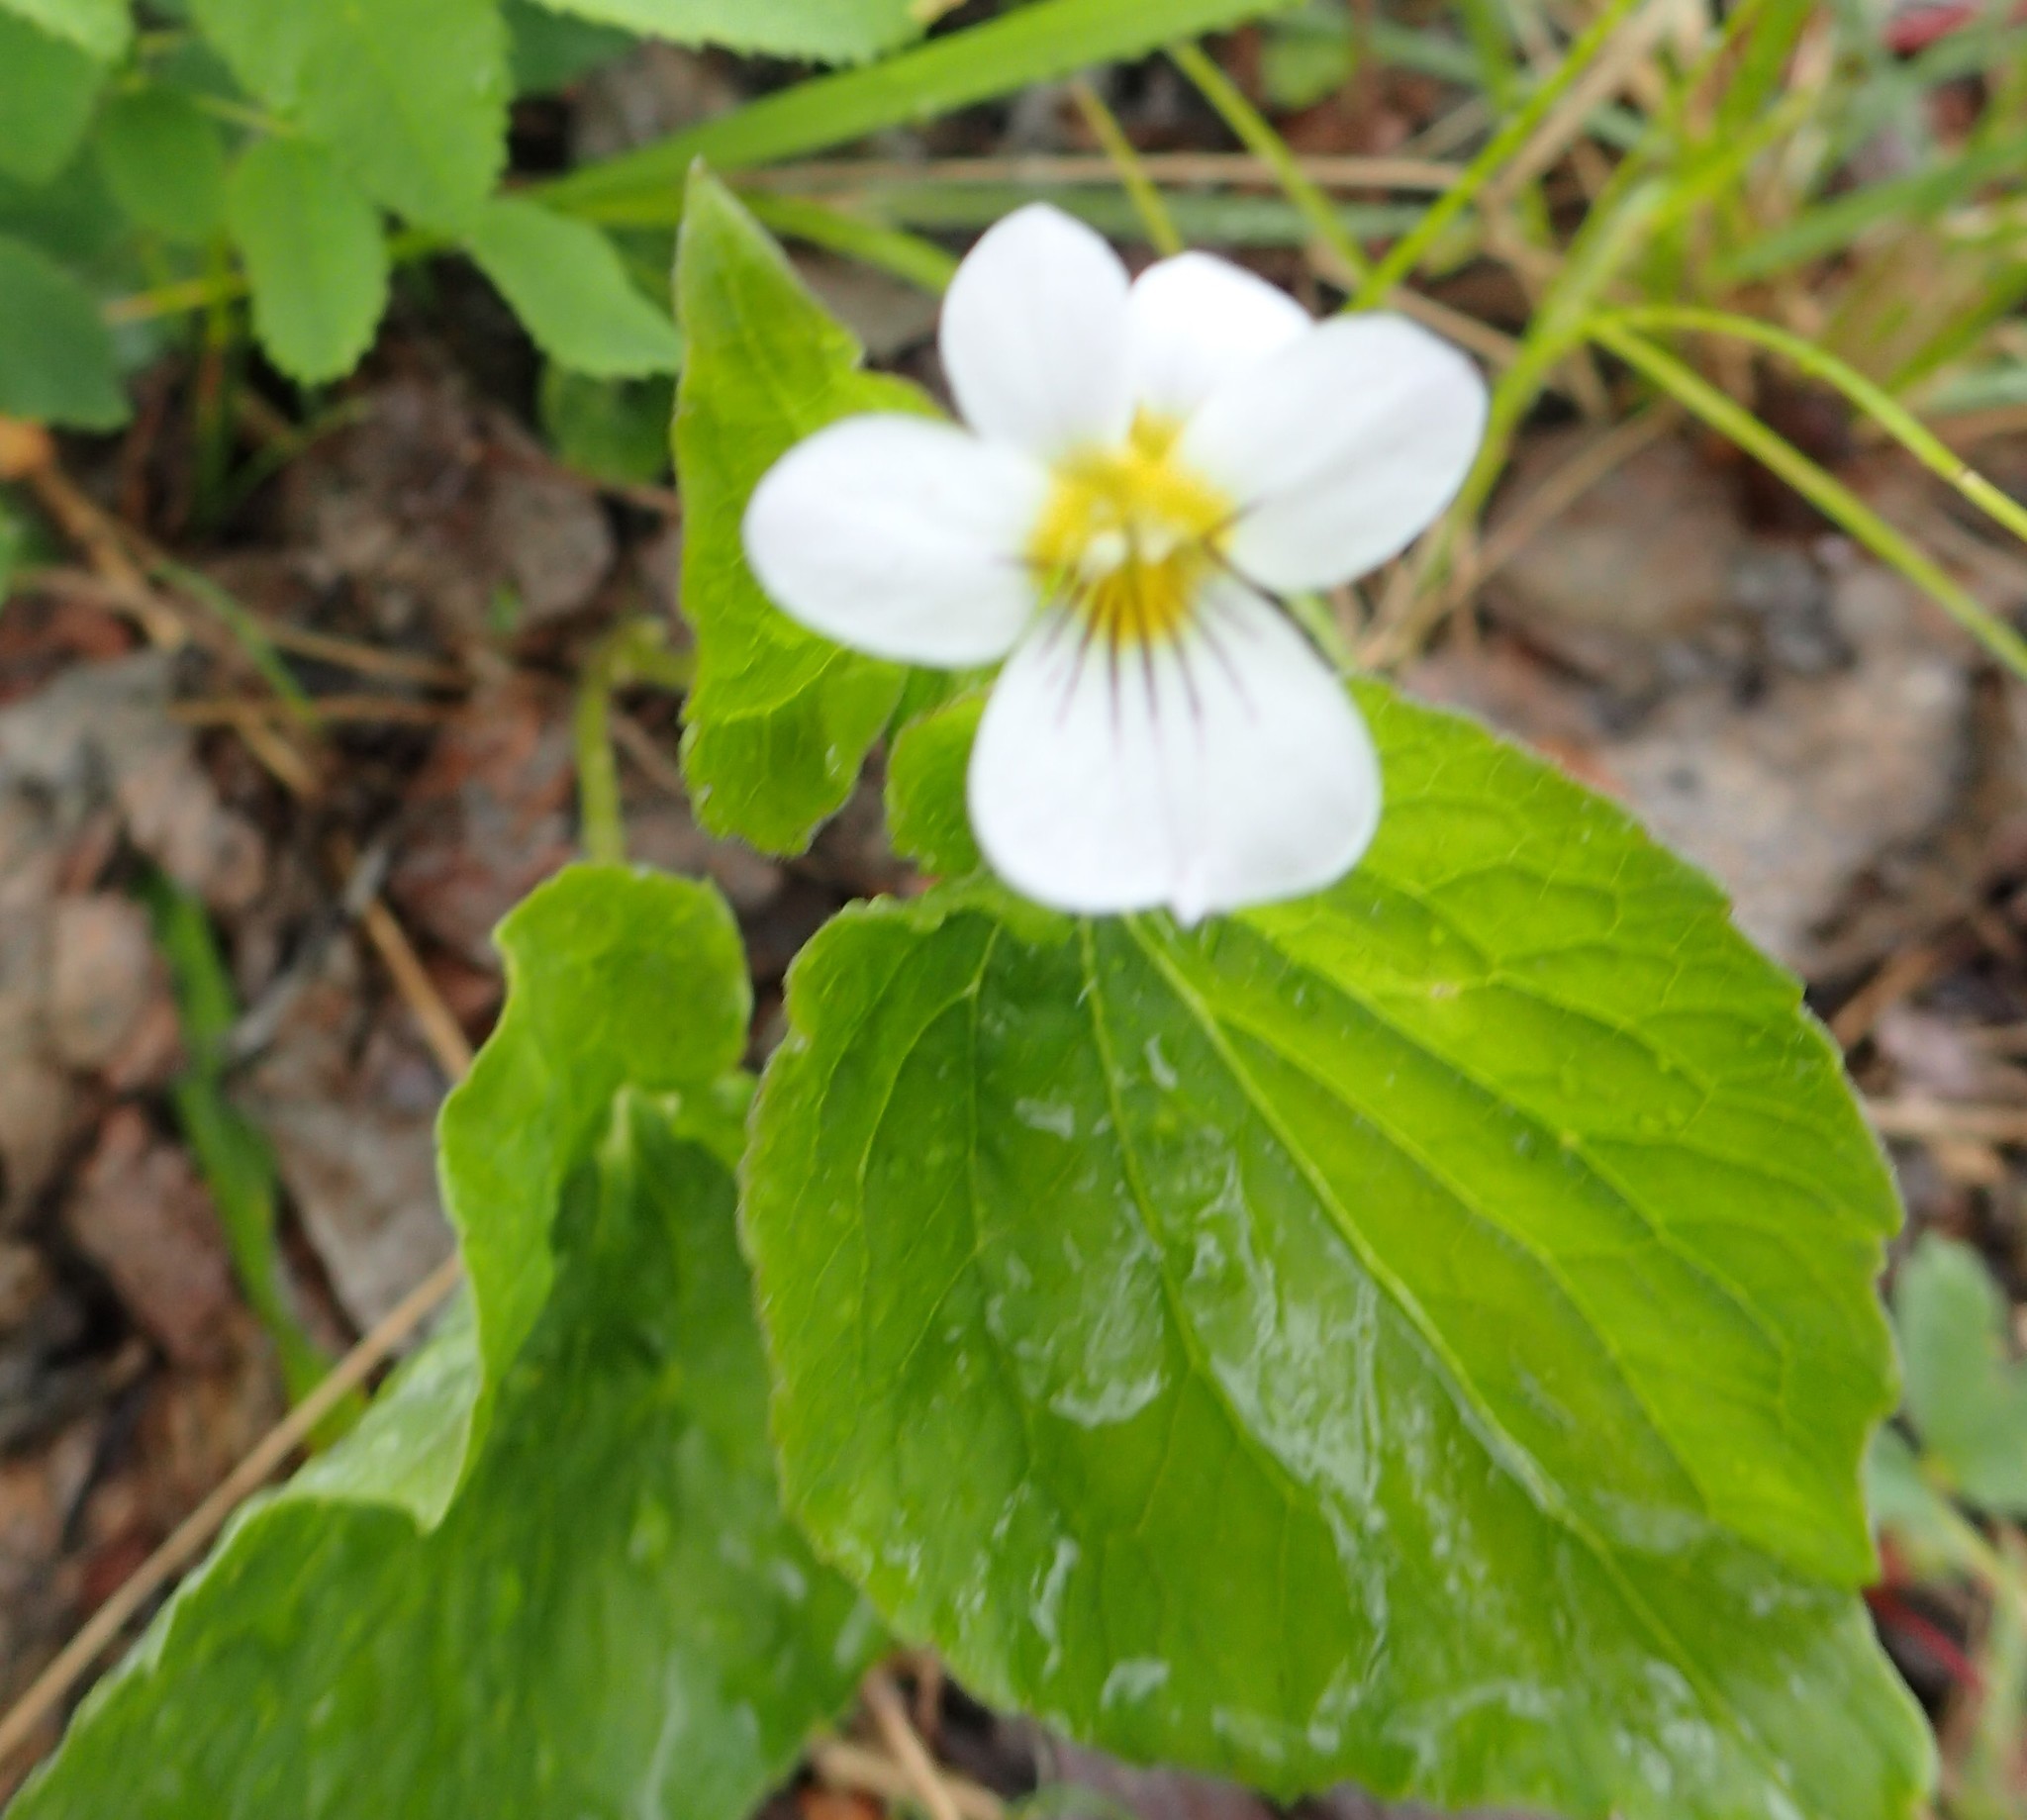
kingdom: Plantae
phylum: Tracheophyta
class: Magnoliopsida
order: Malpighiales
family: Violaceae
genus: Viola
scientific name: Viola canadensis
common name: Canada violet
